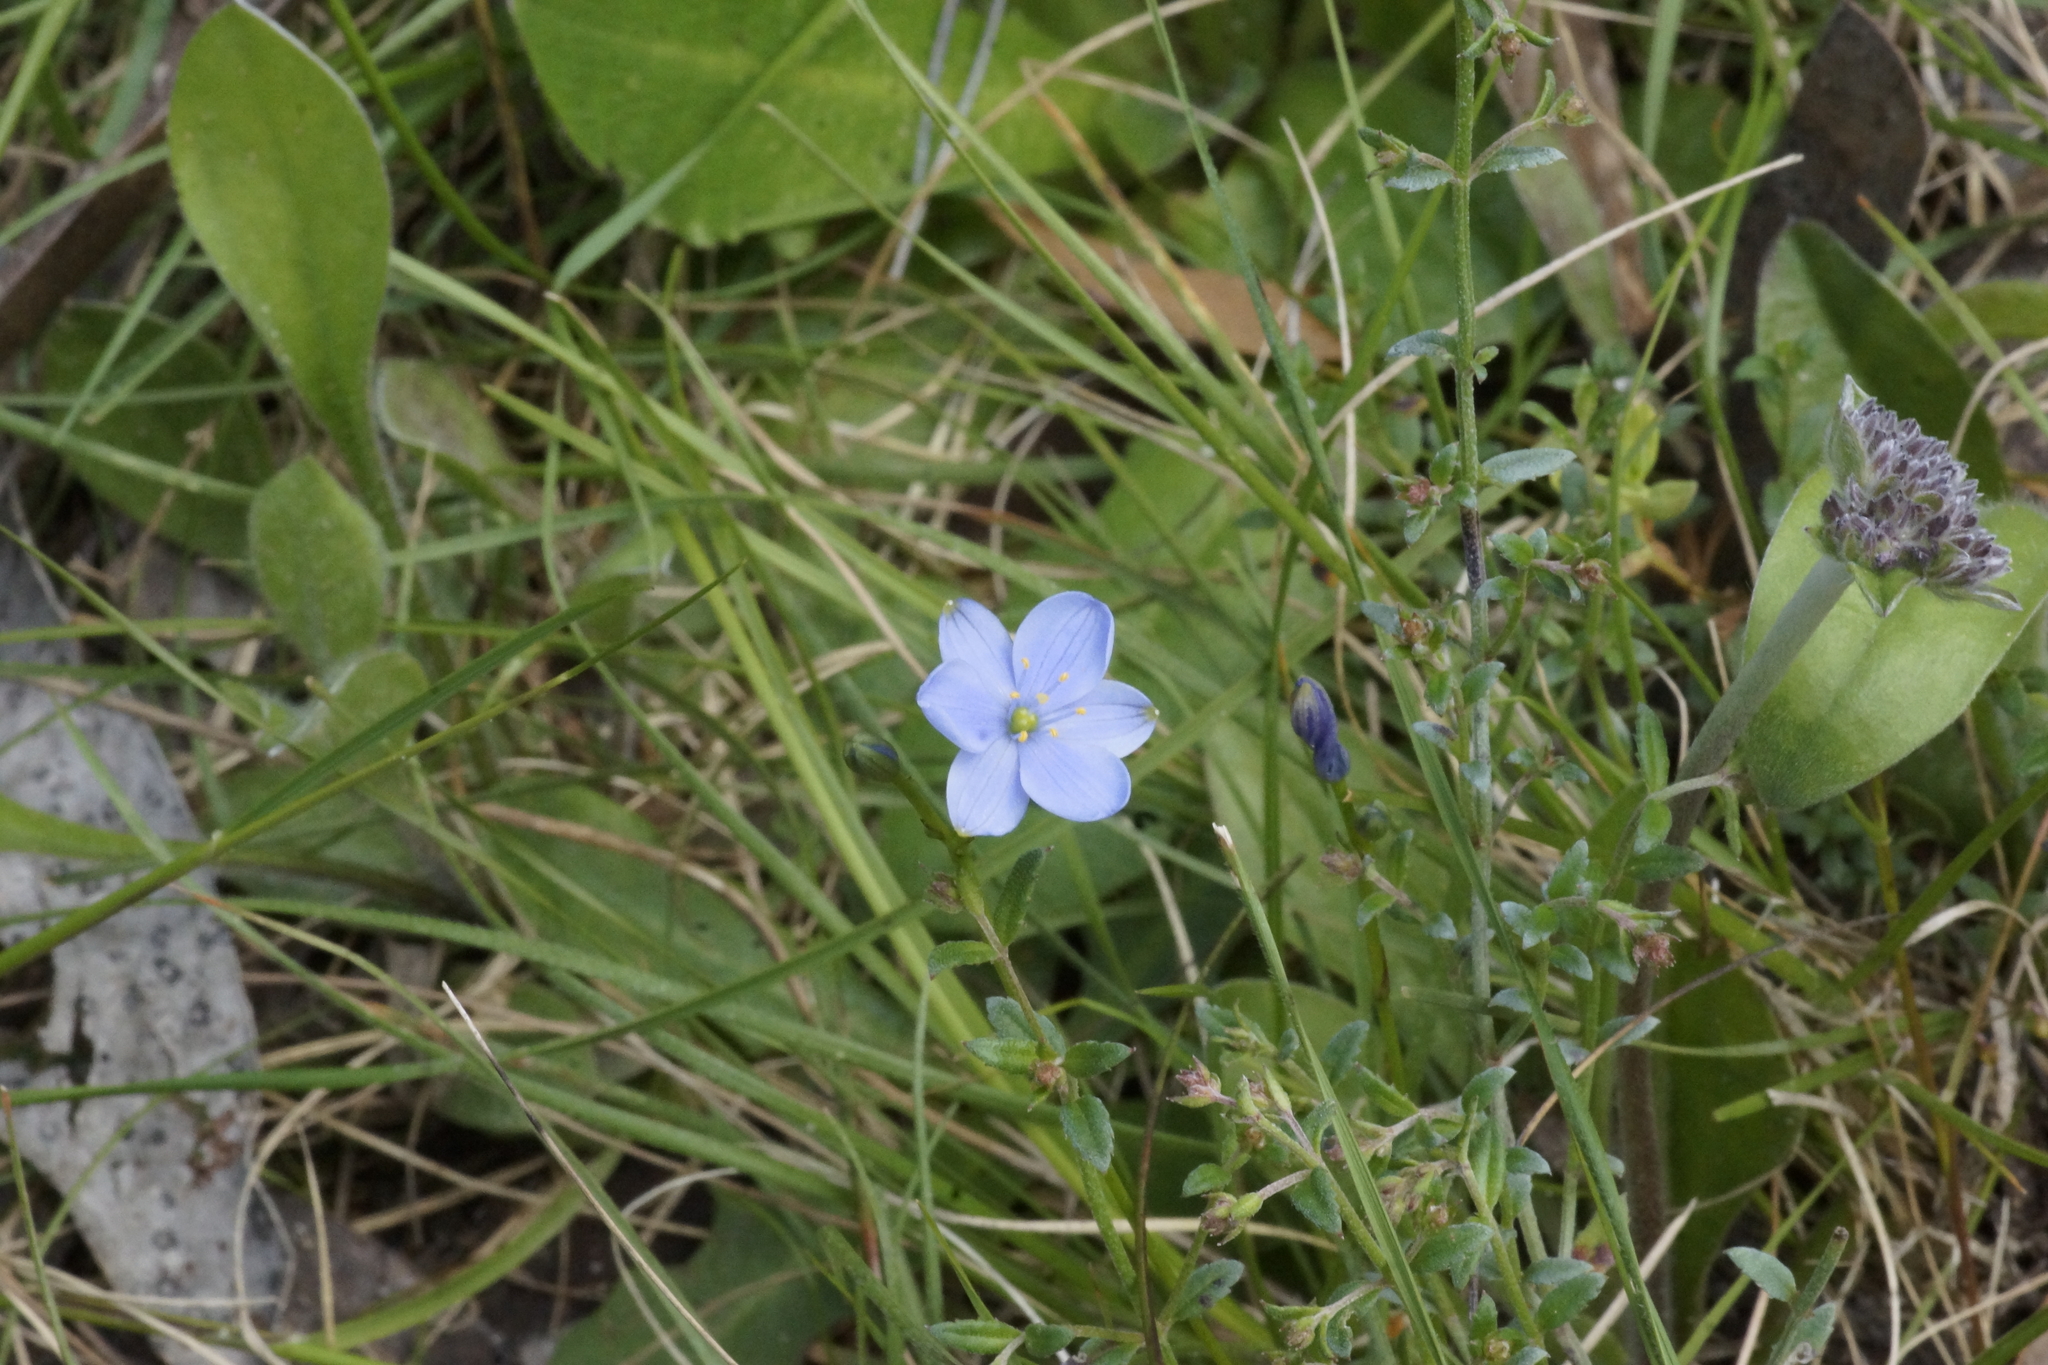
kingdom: Plantae
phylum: Tracheophyta
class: Liliopsida
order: Asparagales
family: Asphodelaceae
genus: Chamaescilla
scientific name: Chamaescilla corymbosa
